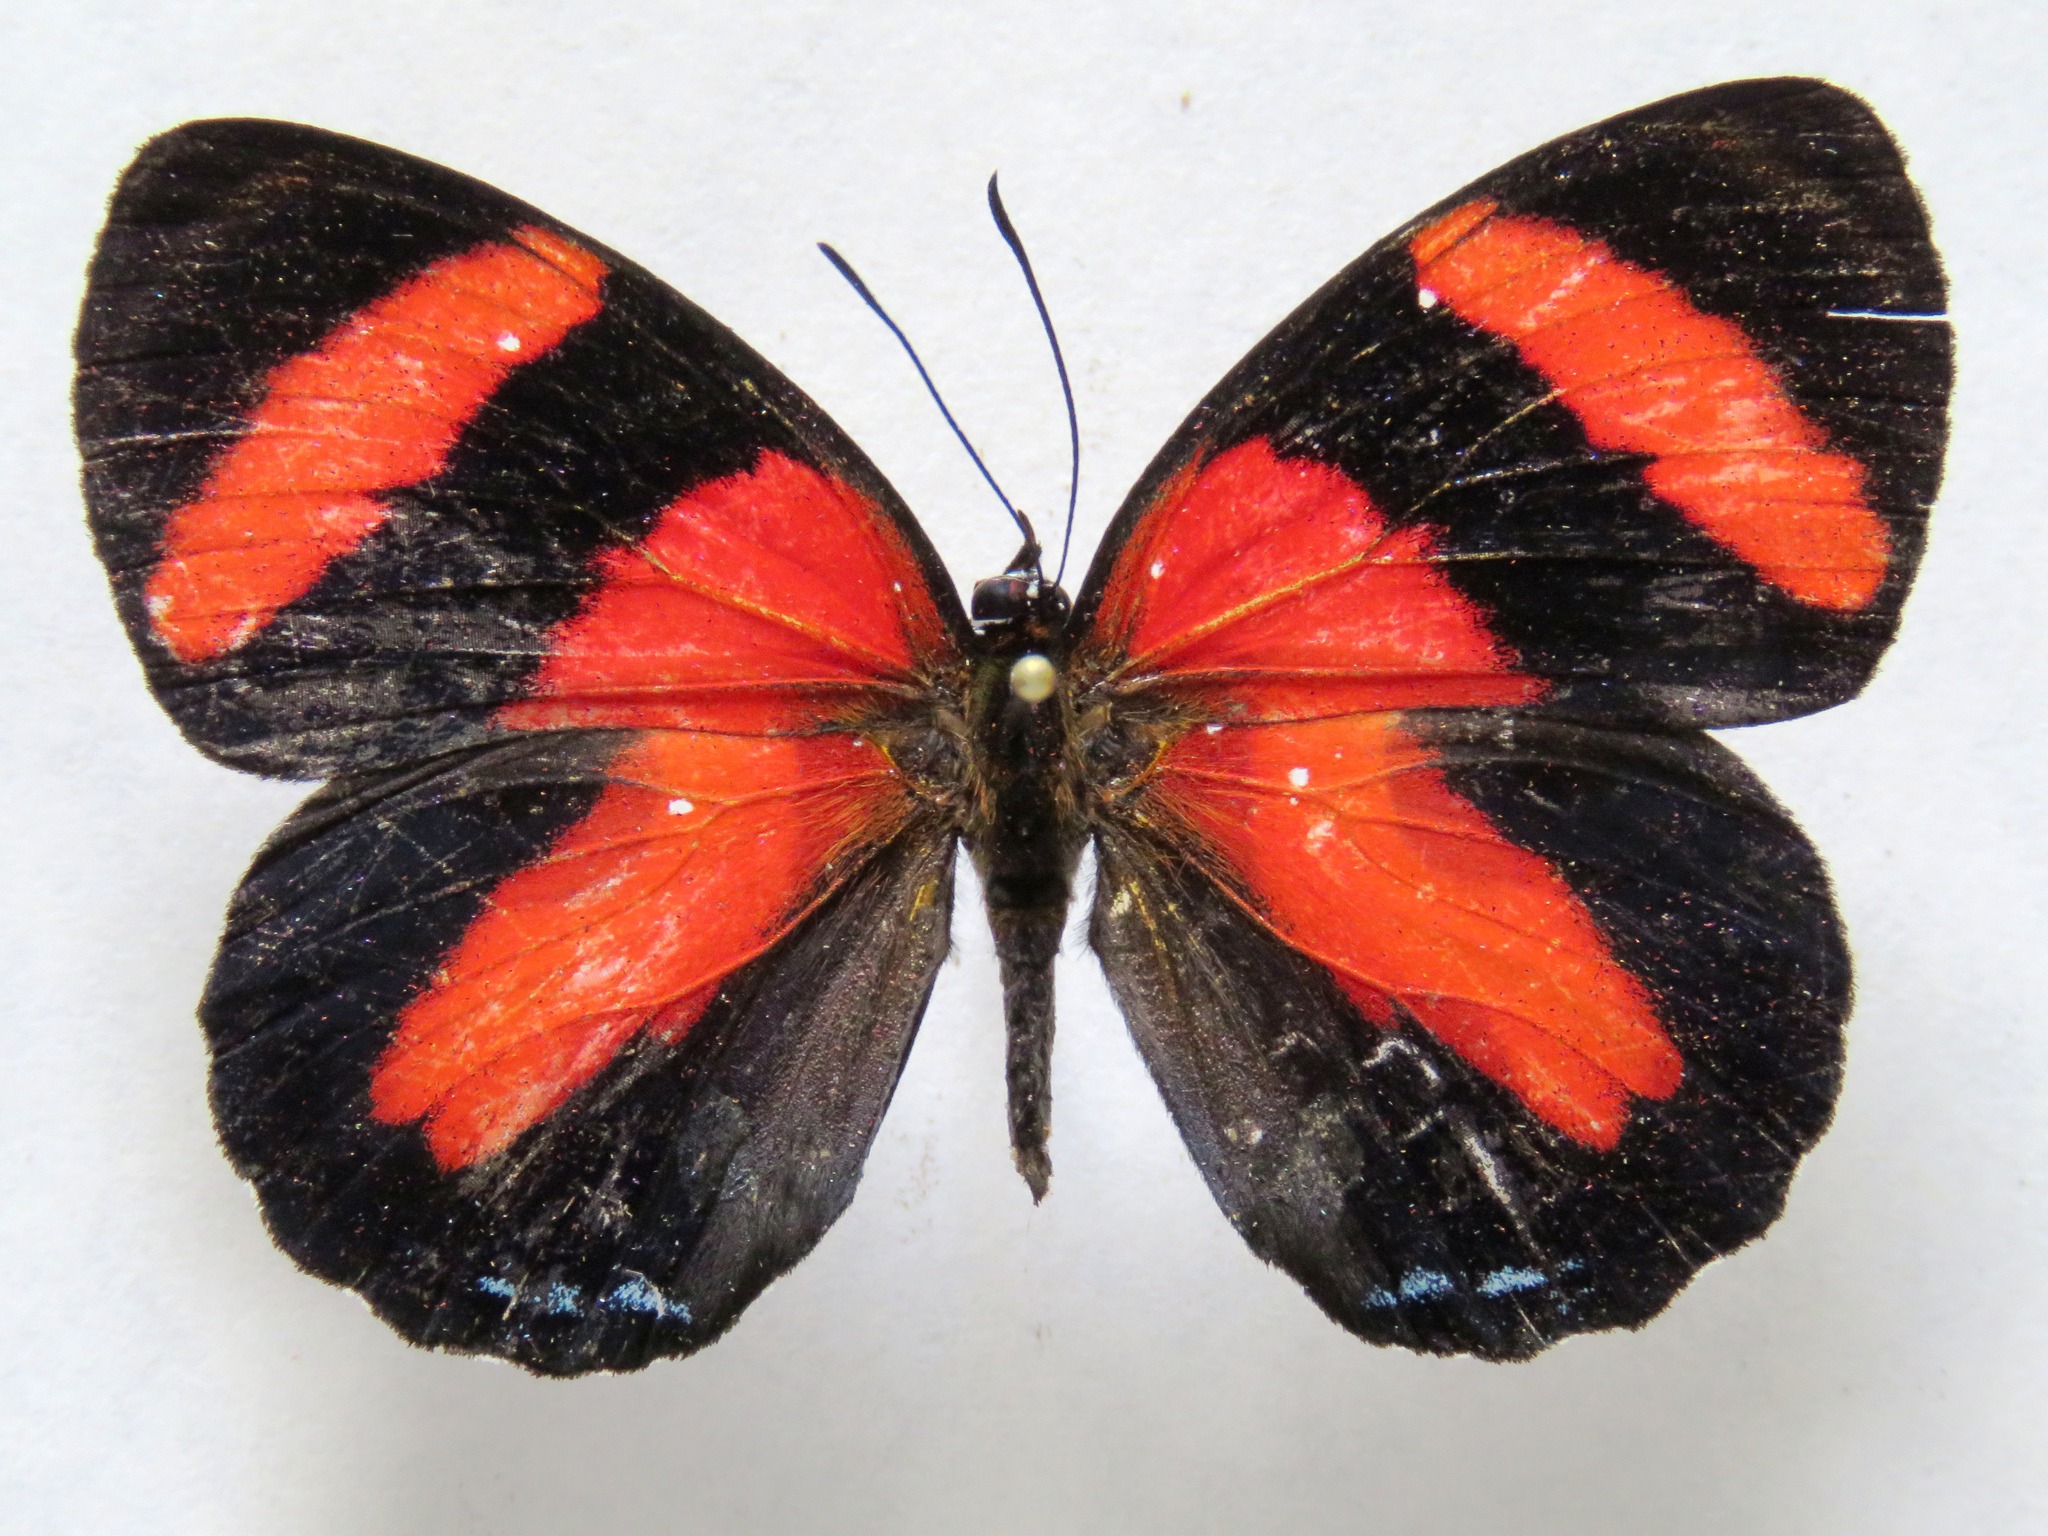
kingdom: Animalia
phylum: Arthropoda
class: Insecta
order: Lepidoptera
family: Nymphalidae
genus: Catagramma
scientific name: Catagramma Callicore pitheas
